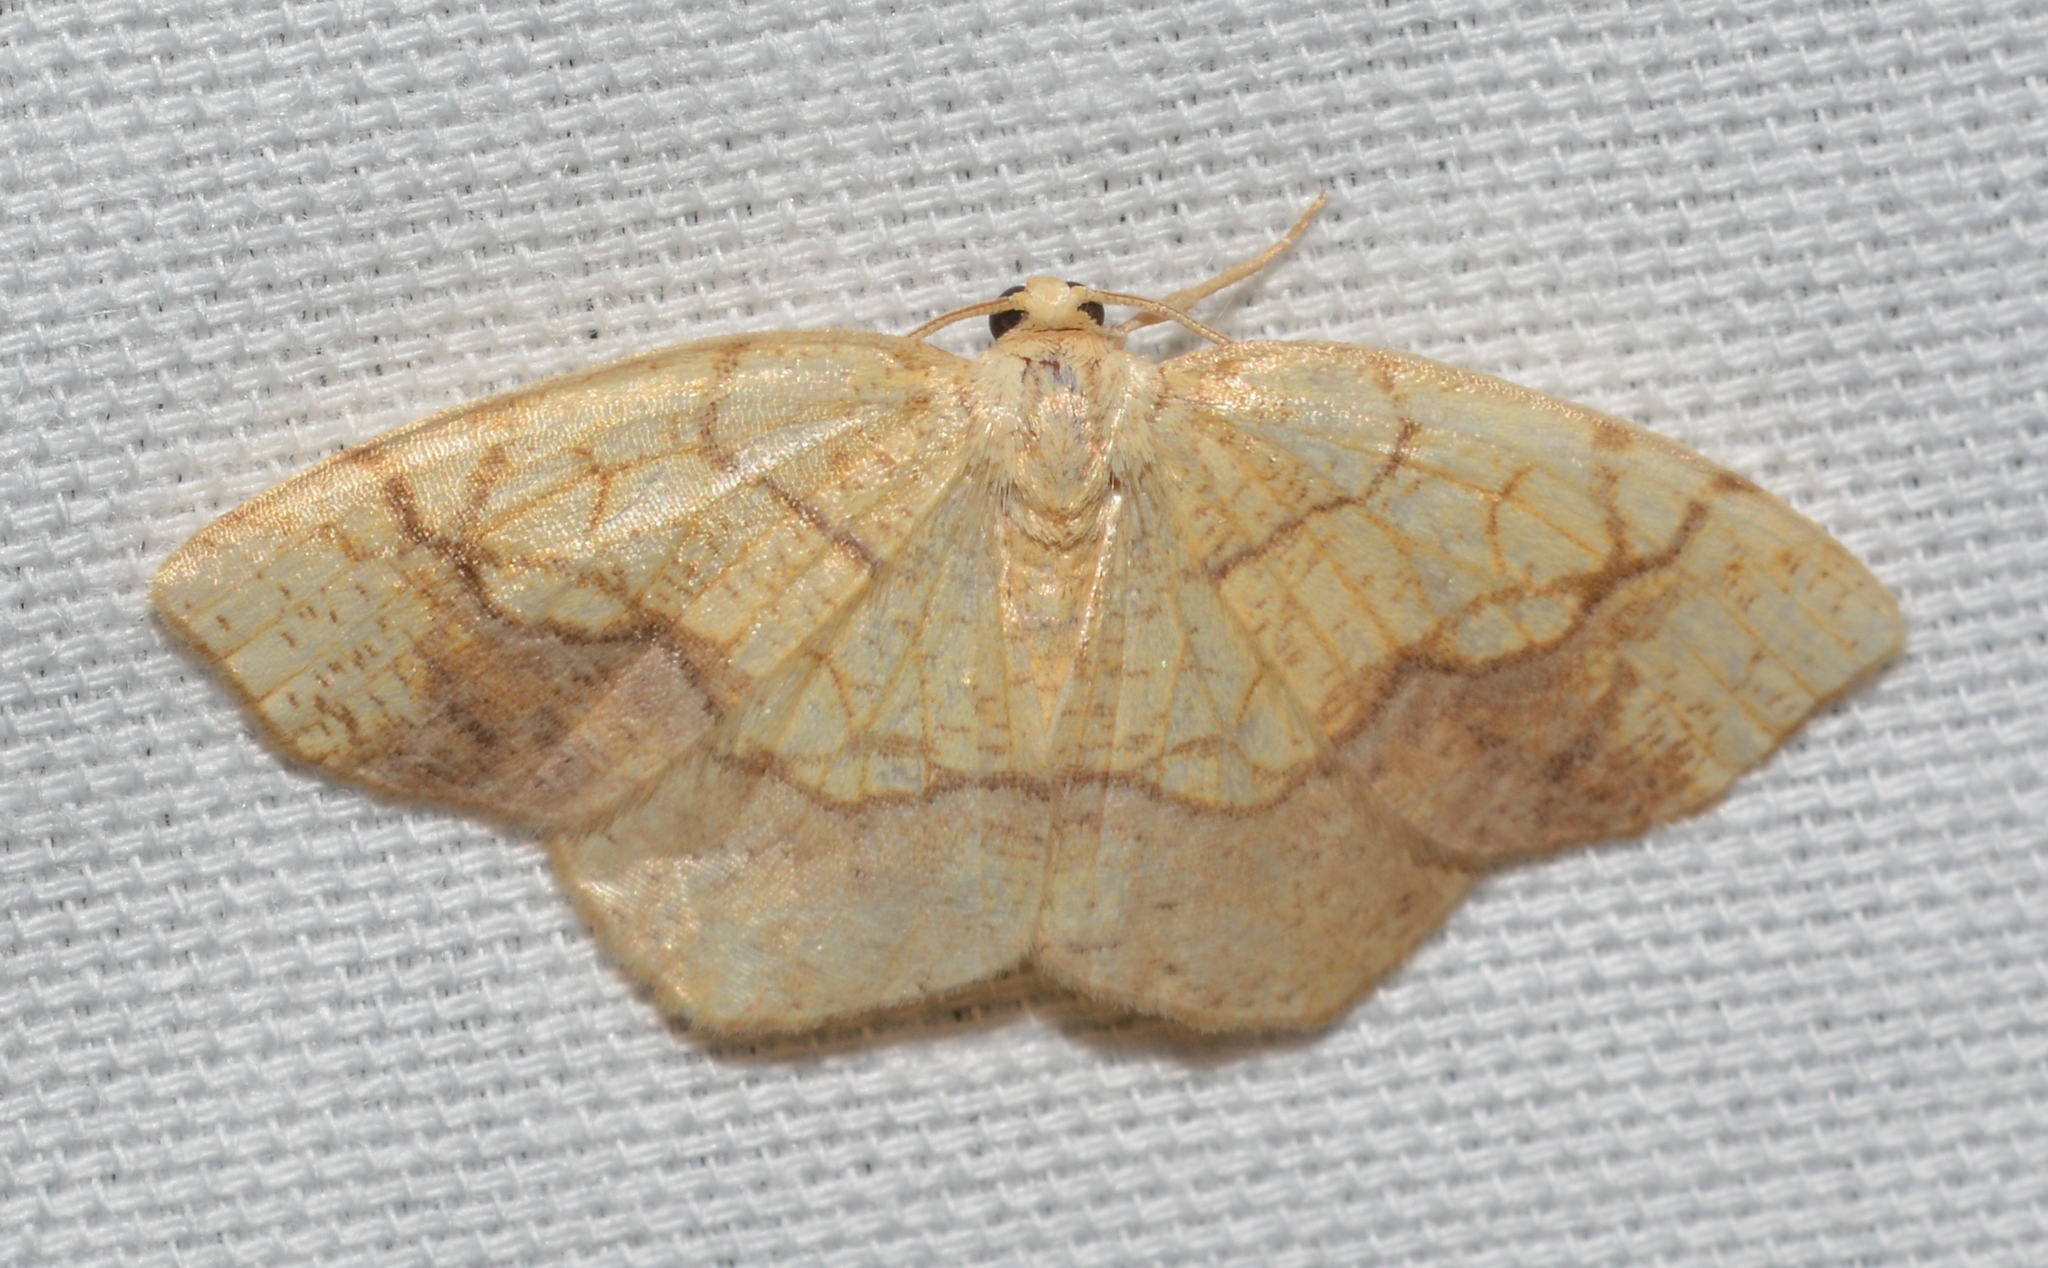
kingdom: Animalia
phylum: Arthropoda
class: Insecta
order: Lepidoptera
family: Geometridae
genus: Nematocampa
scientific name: Nematocampa resistaria
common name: Horned spanworm moth
